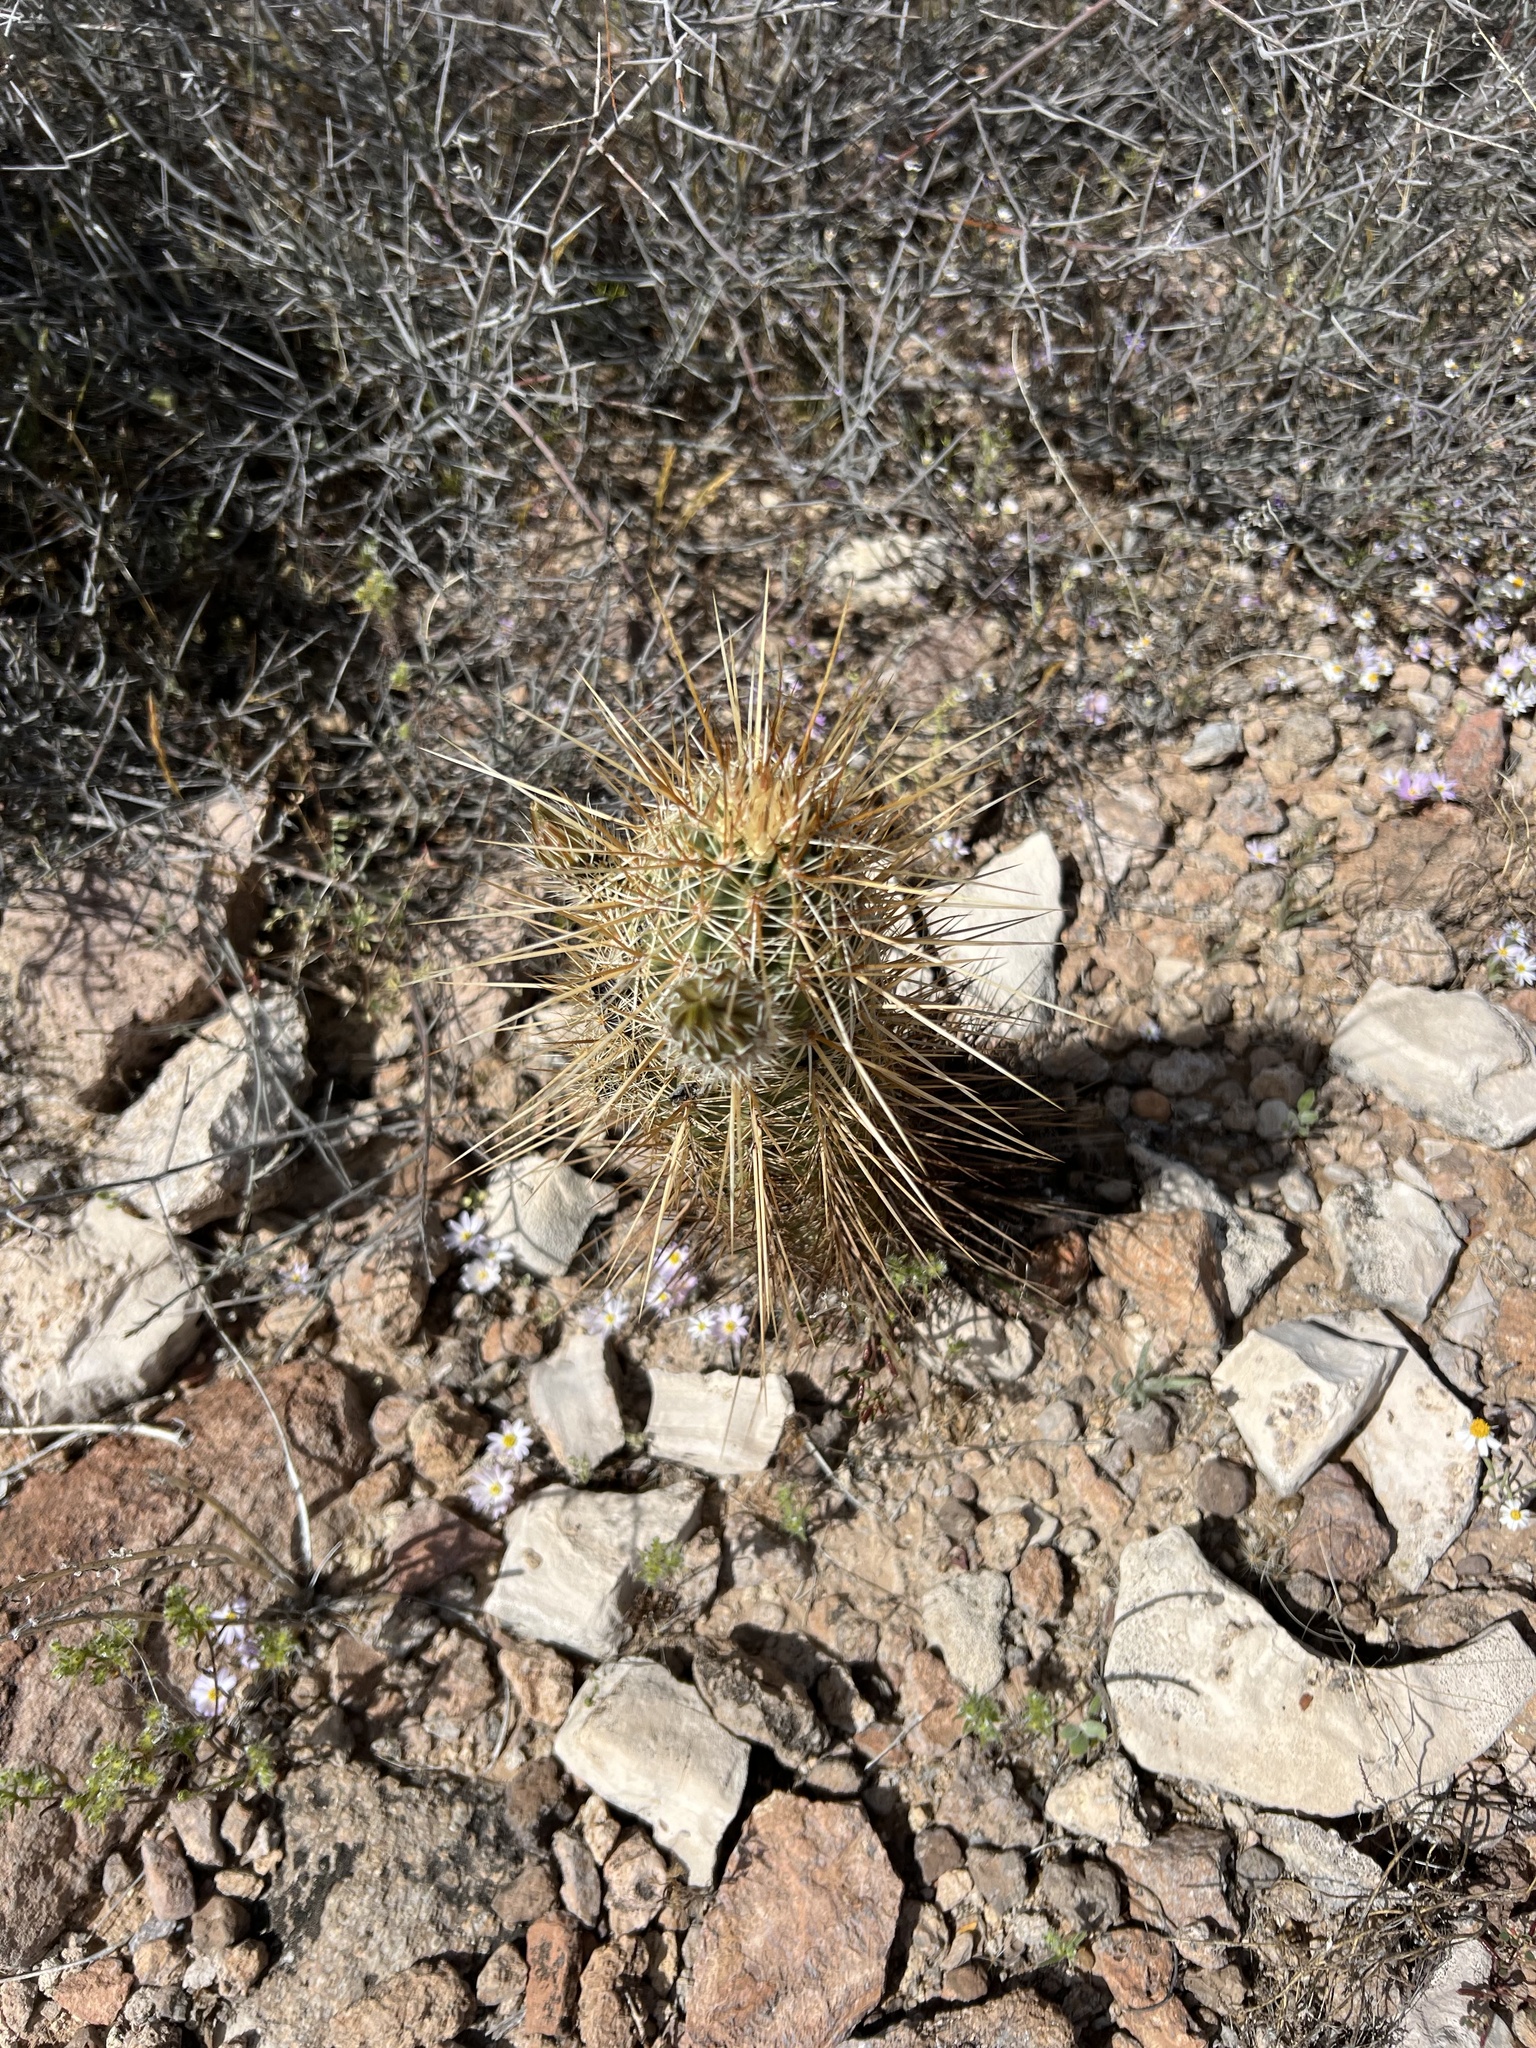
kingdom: Plantae
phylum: Tracheophyta
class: Magnoliopsida
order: Caryophyllales
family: Cactaceae
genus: Echinocereus
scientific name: Echinocereus engelmannii
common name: Engelmann's hedgehog cactus
